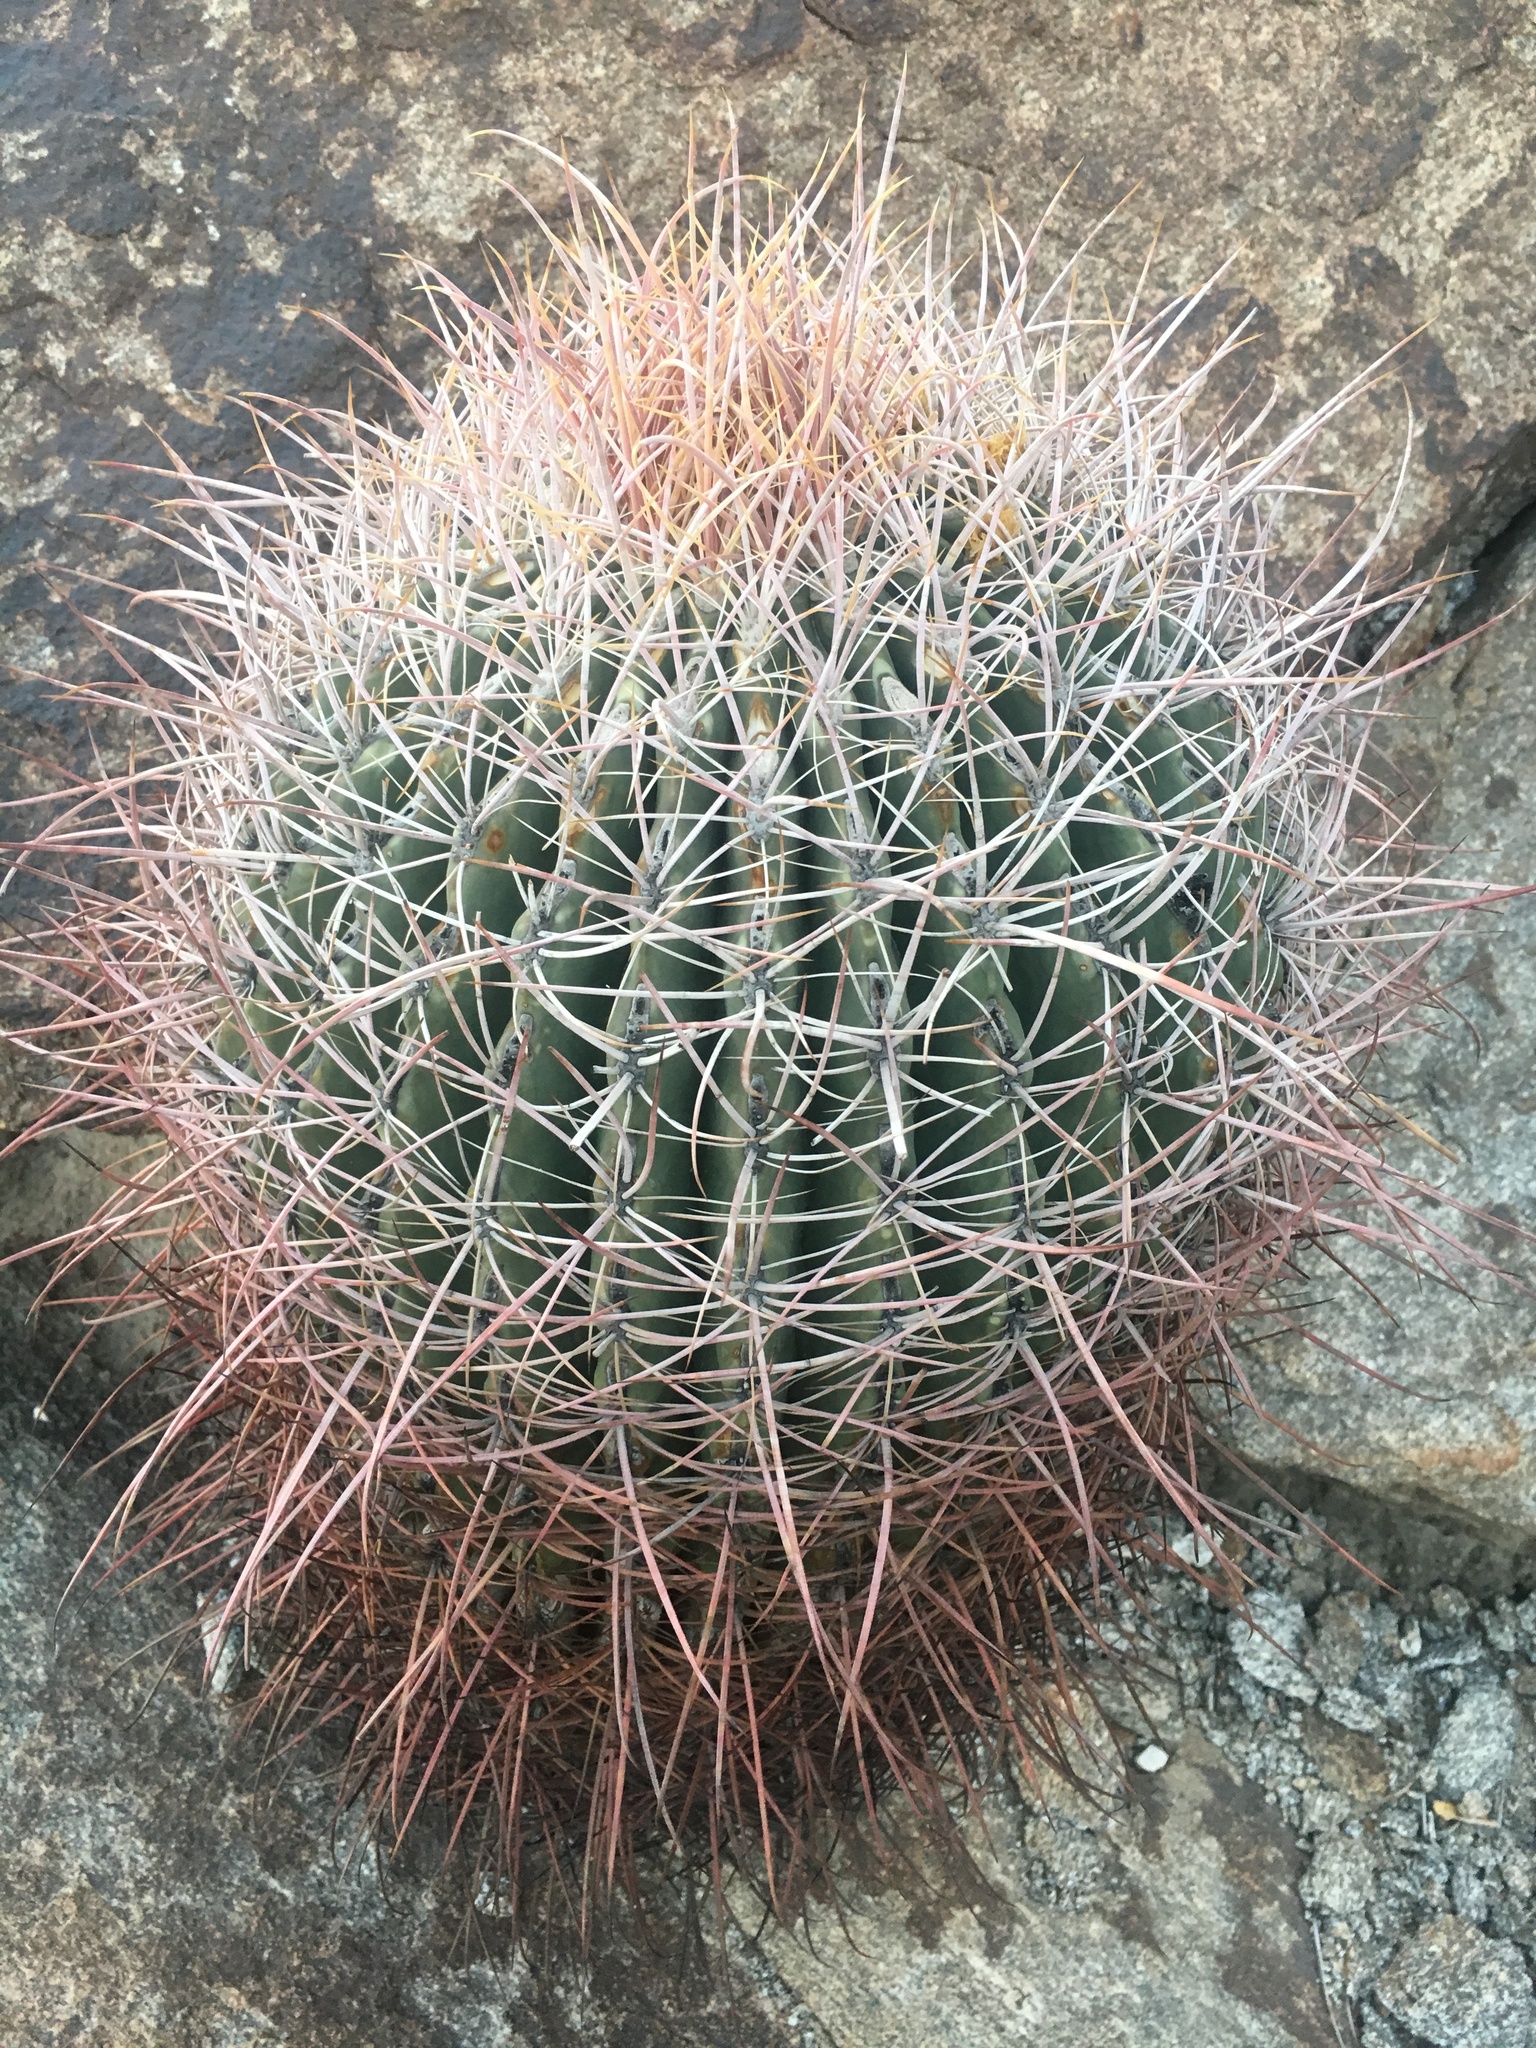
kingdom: Plantae
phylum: Tracheophyta
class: Magnoliopsida
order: Caryophyllales
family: Cactaceae
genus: Ferocactus
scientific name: Ferocactus cylindraceus
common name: California barrel cactus
